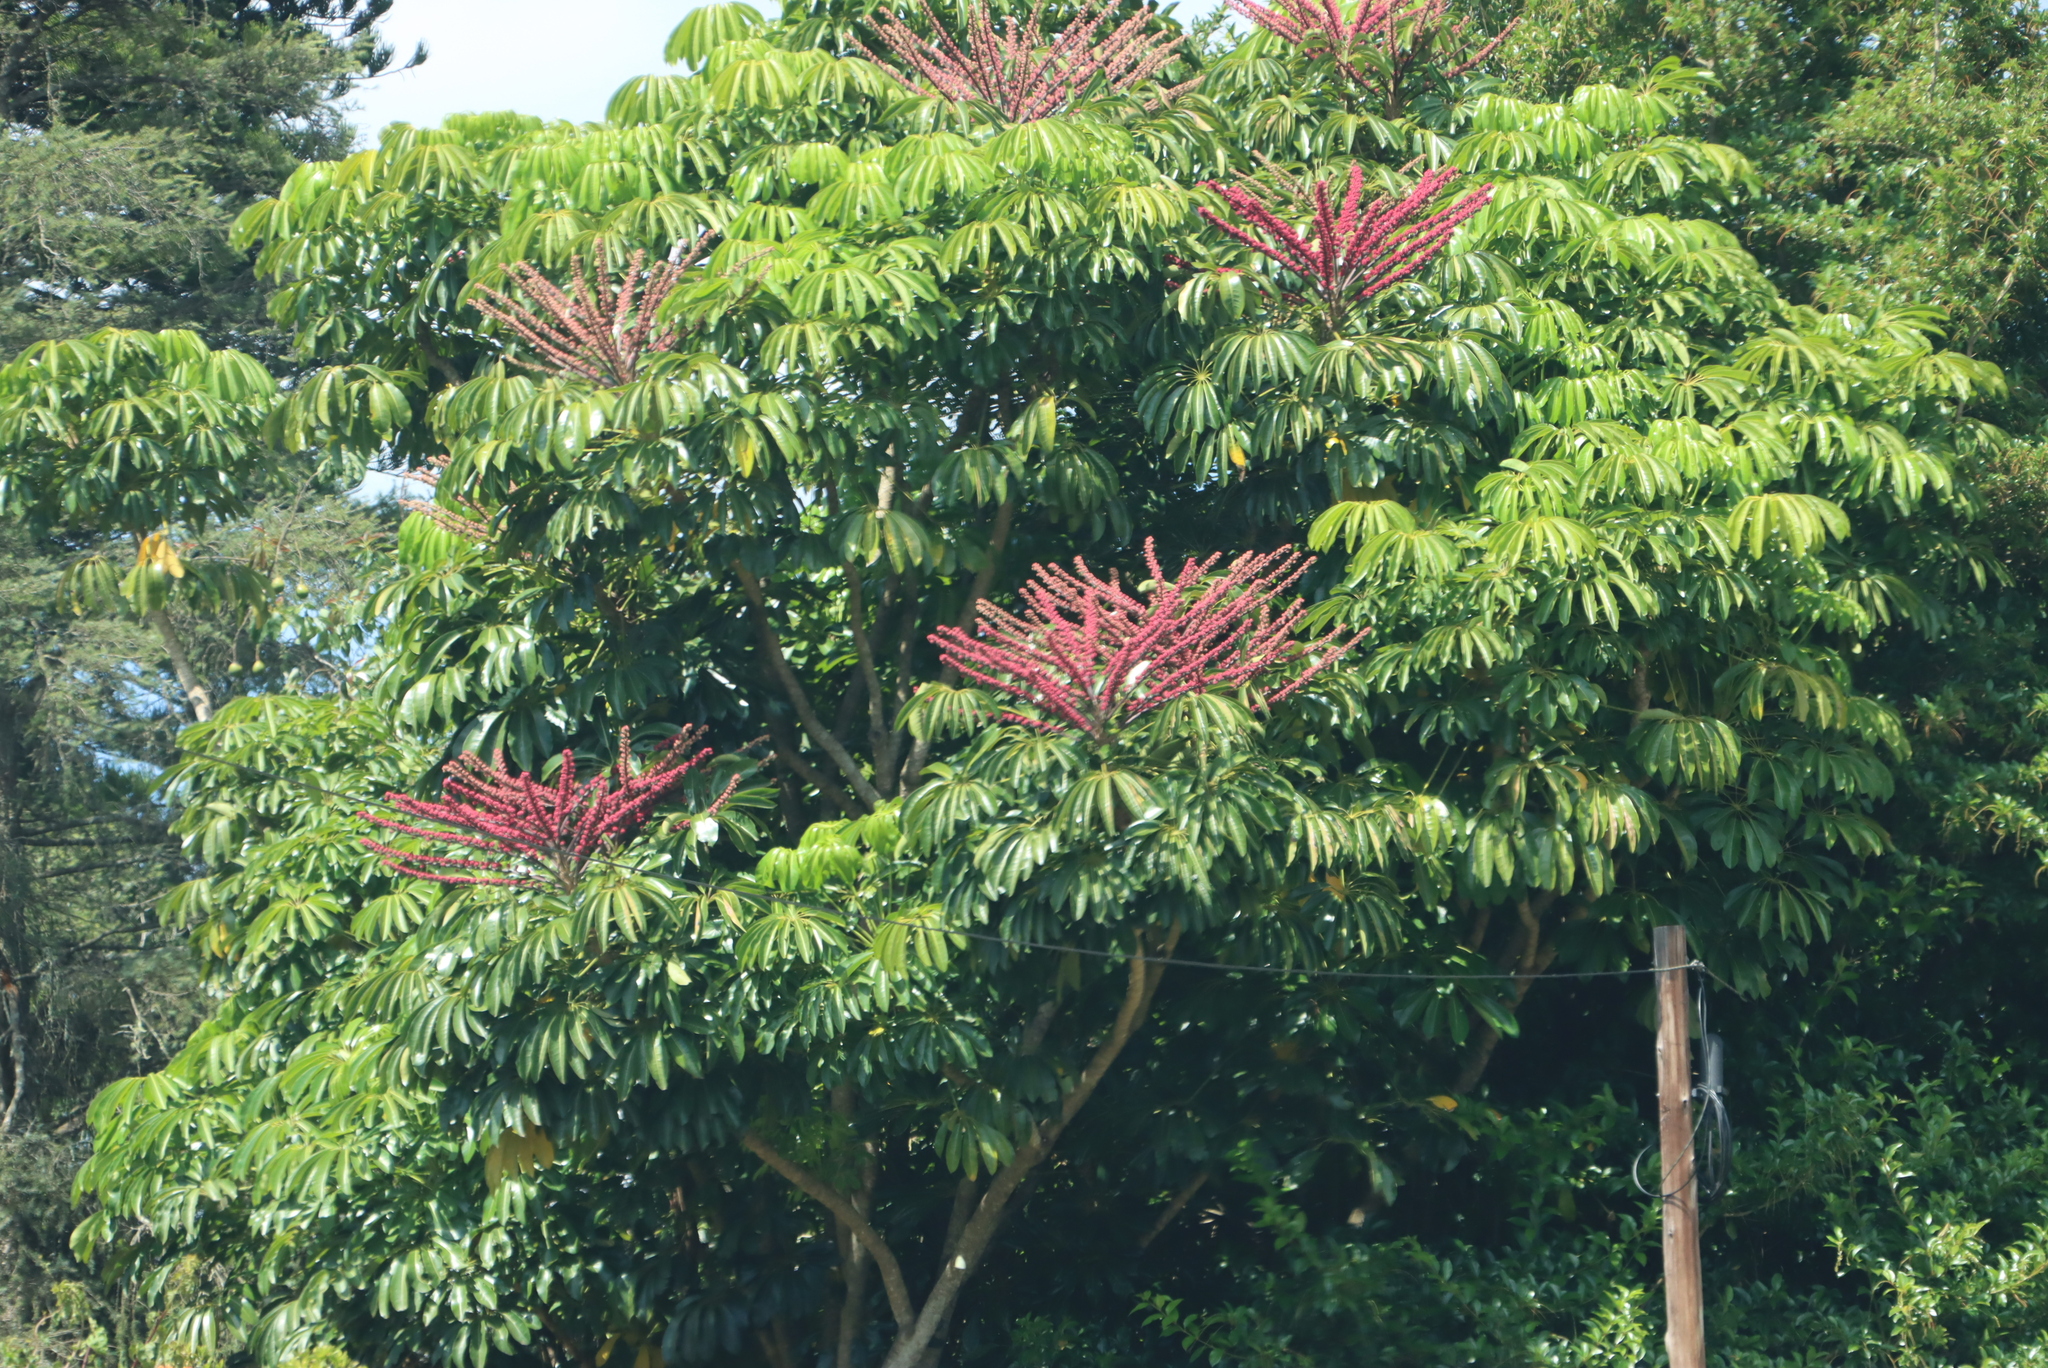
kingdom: Plantae
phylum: Tracheophyta
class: Magnoliopsida
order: Apiales
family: Araliaceae
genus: Heptapleurum
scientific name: Heptapleurum actinophyllum
